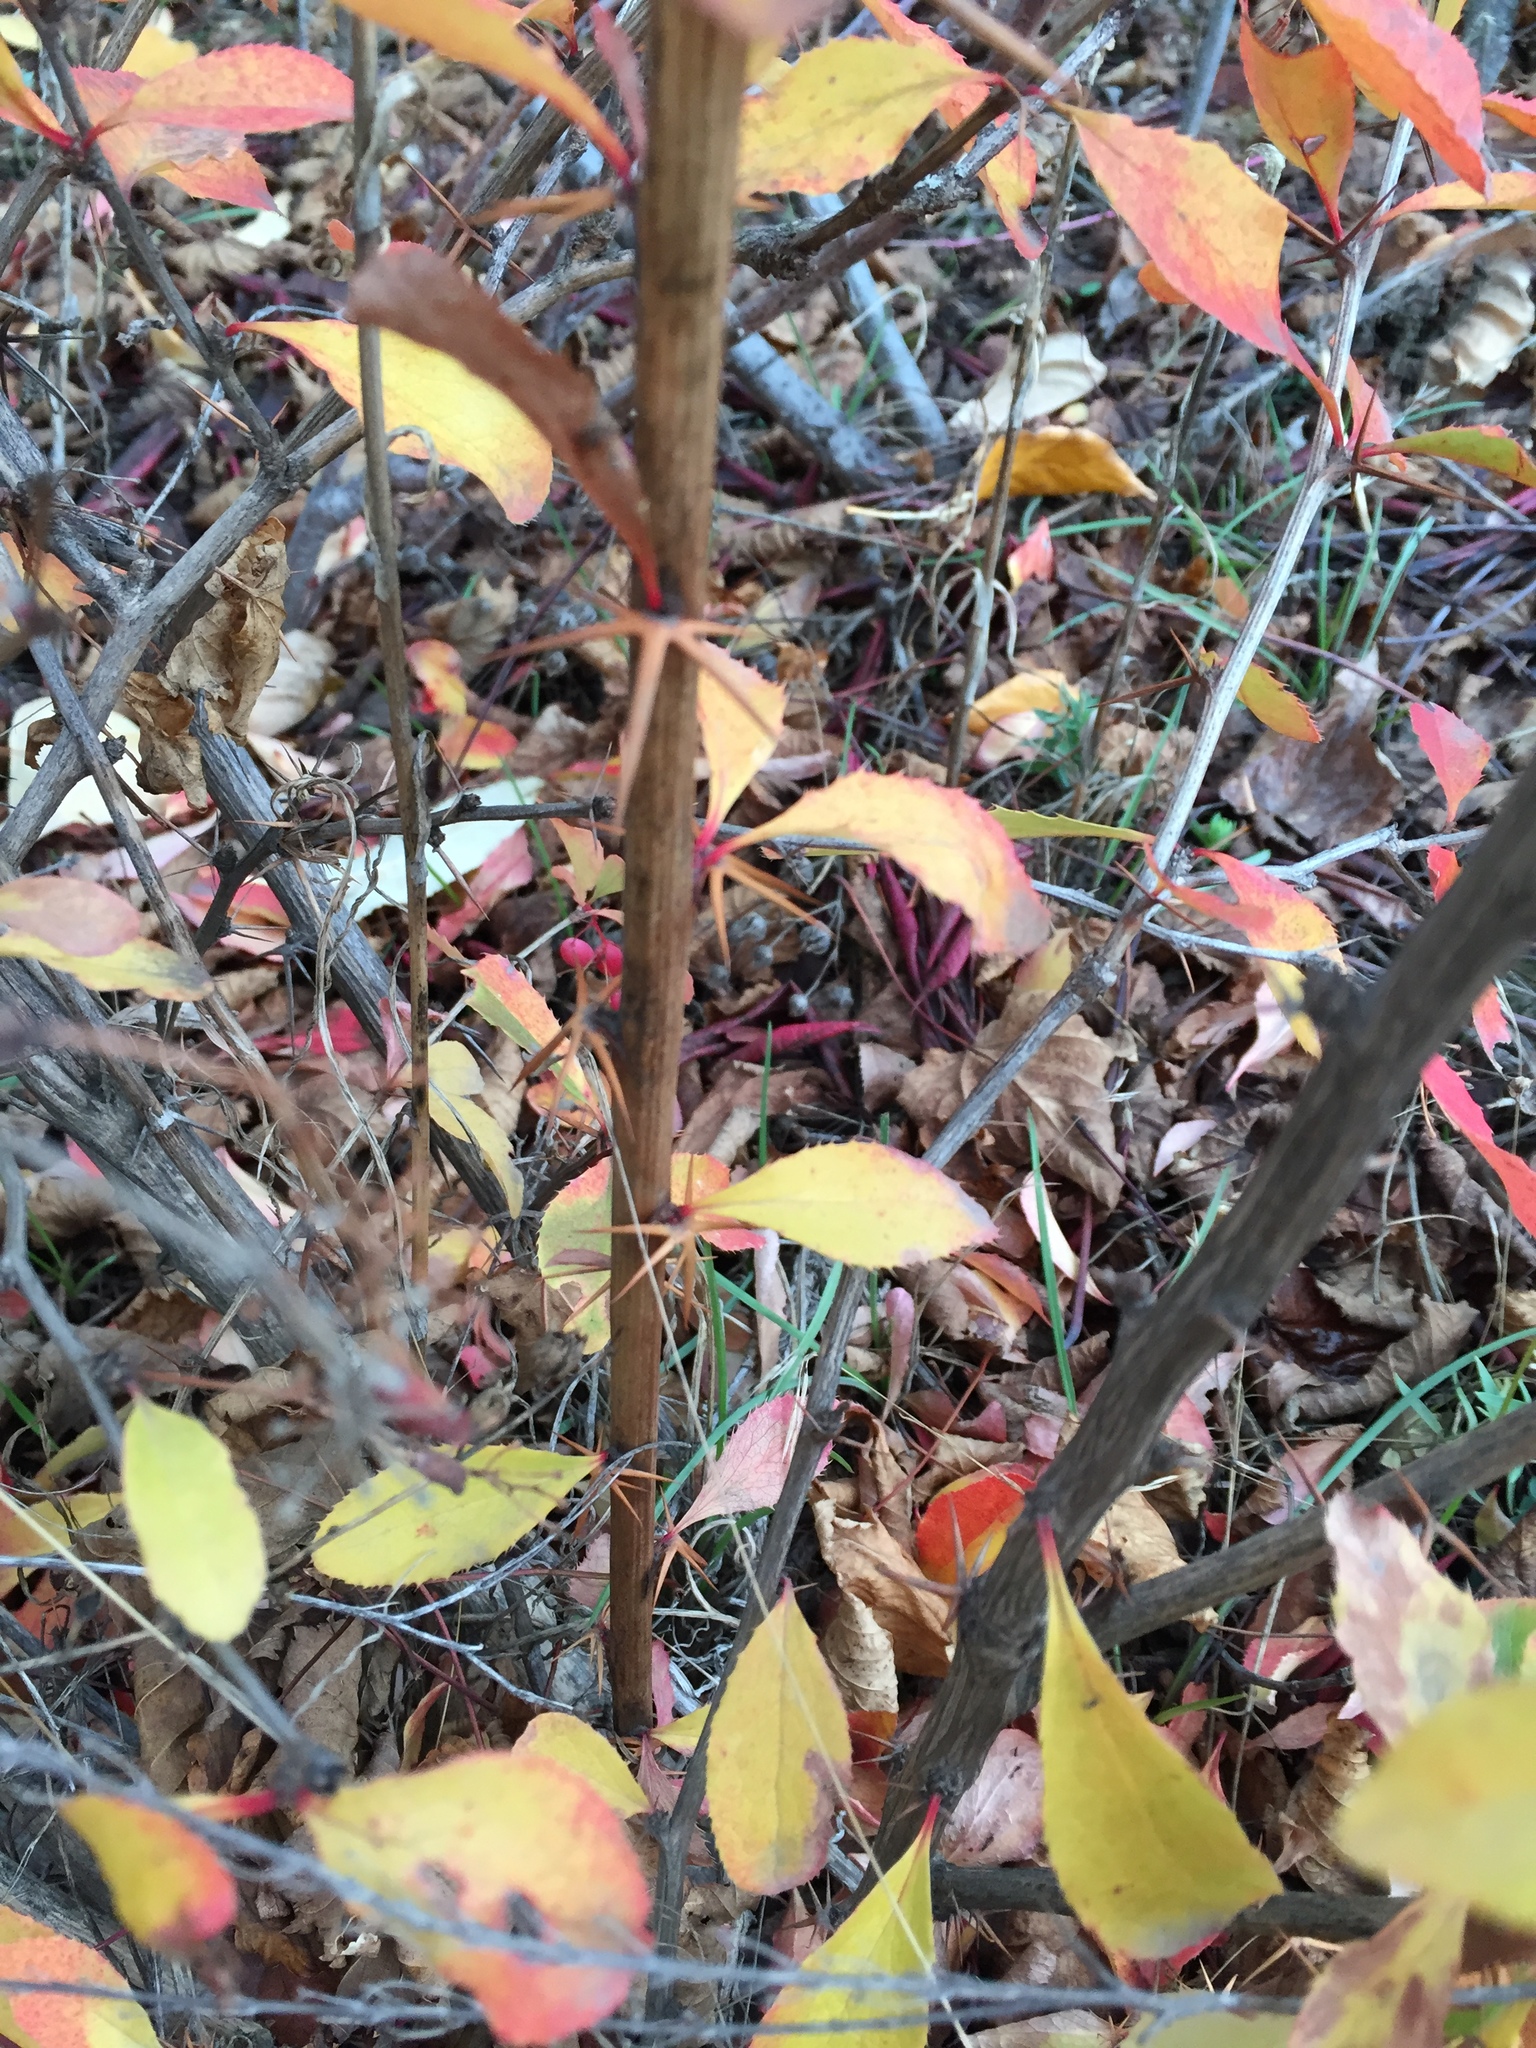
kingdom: Plantae
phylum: Tracheophyta
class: Magnoliopsida
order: Ranunculales
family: Berberidaceae
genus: Berberis
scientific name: Berberis vulgaris
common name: Barberry
